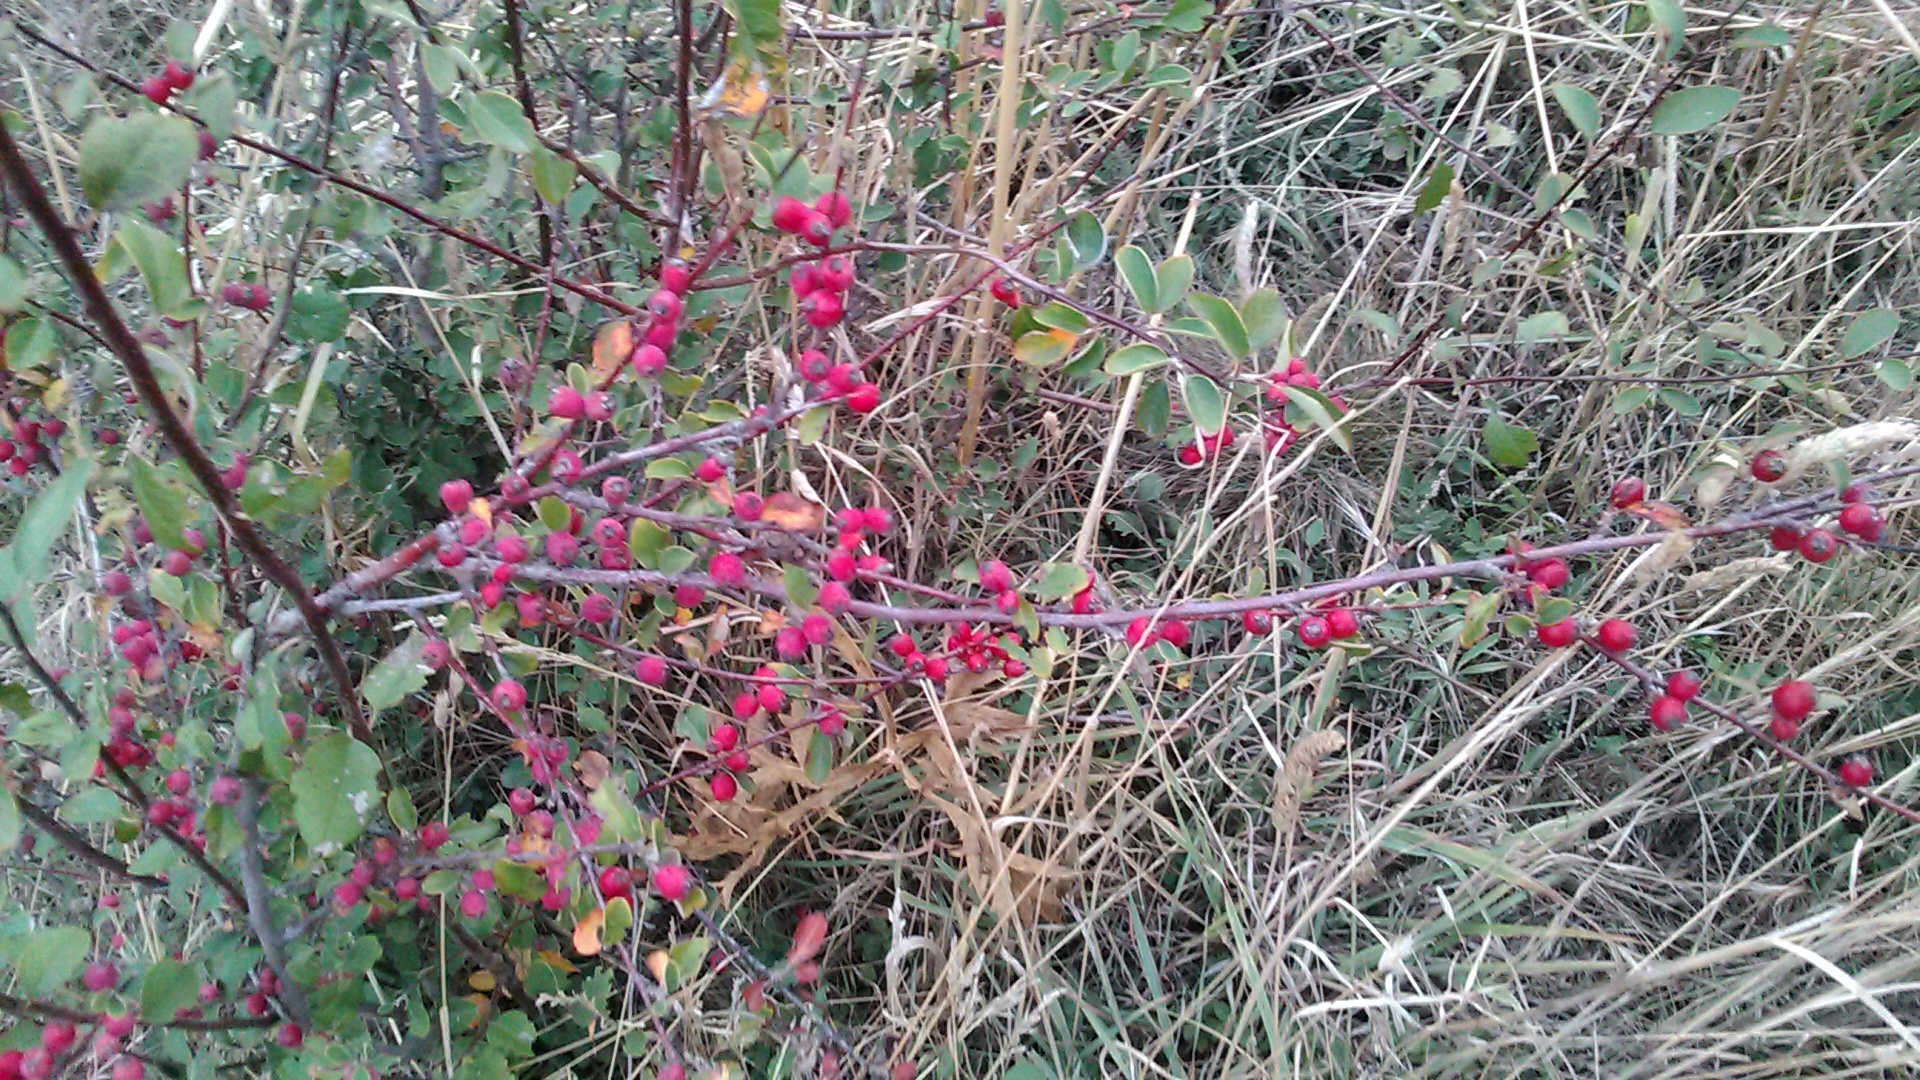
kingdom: Plantae
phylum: Tracheophyta
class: Magnoliopsida
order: Rosales
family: Rosaceae
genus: Cotoneaster
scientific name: Cotoneaster tauricus
